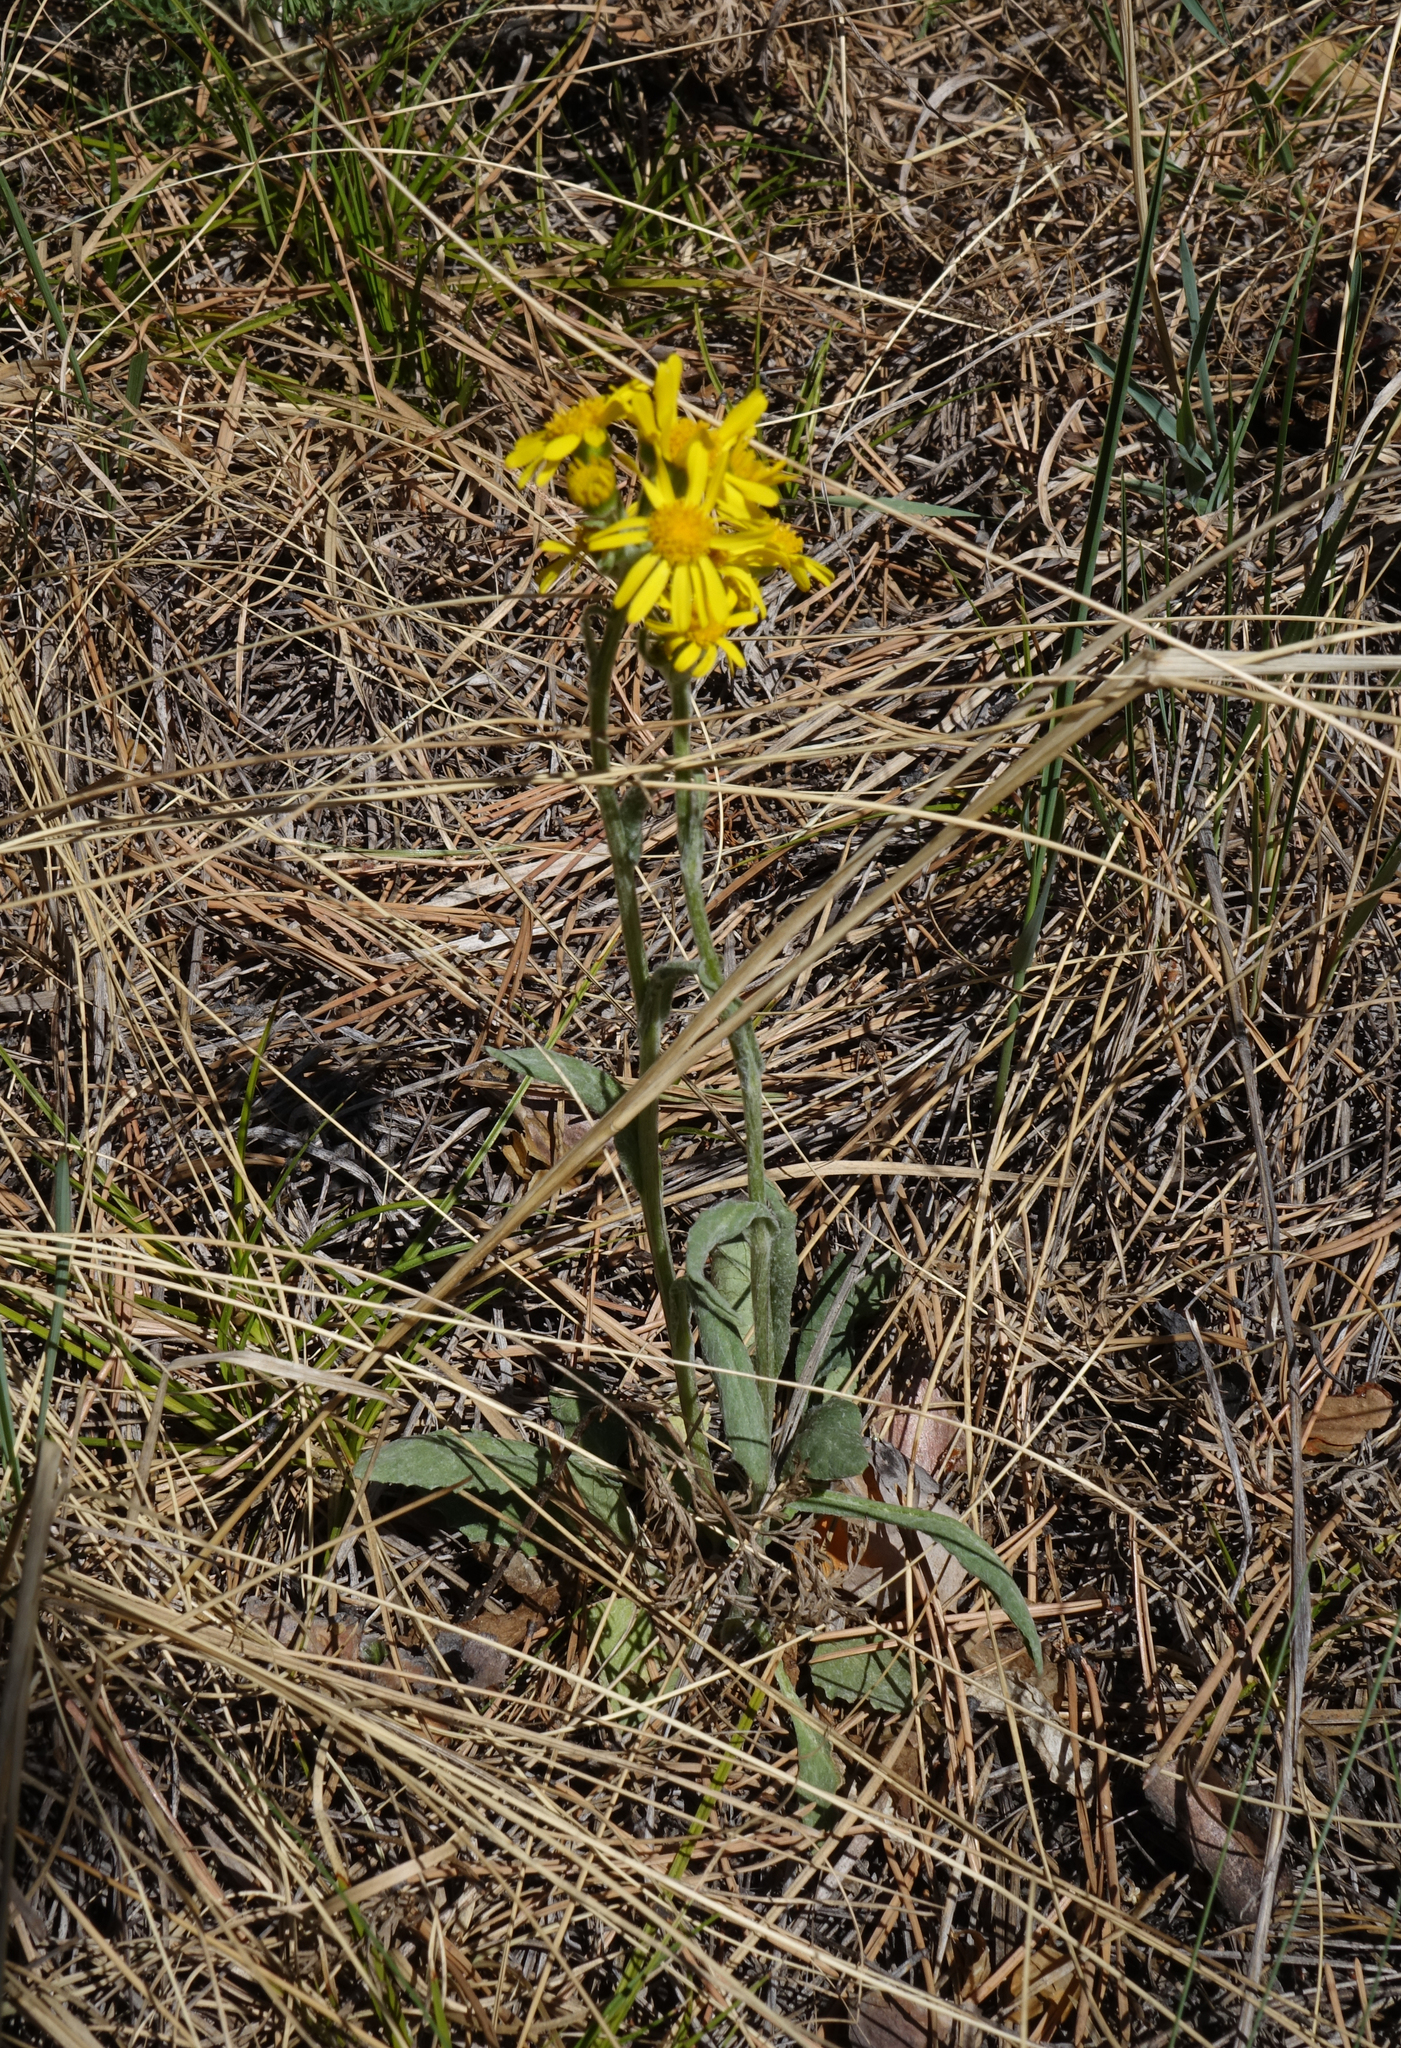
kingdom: Plantae
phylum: Tracheophyta
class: Magnoliopsida
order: Asterales
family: Asteraceae
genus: Tephroseris
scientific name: Tephroseris integrifolia
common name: Field fleawort
